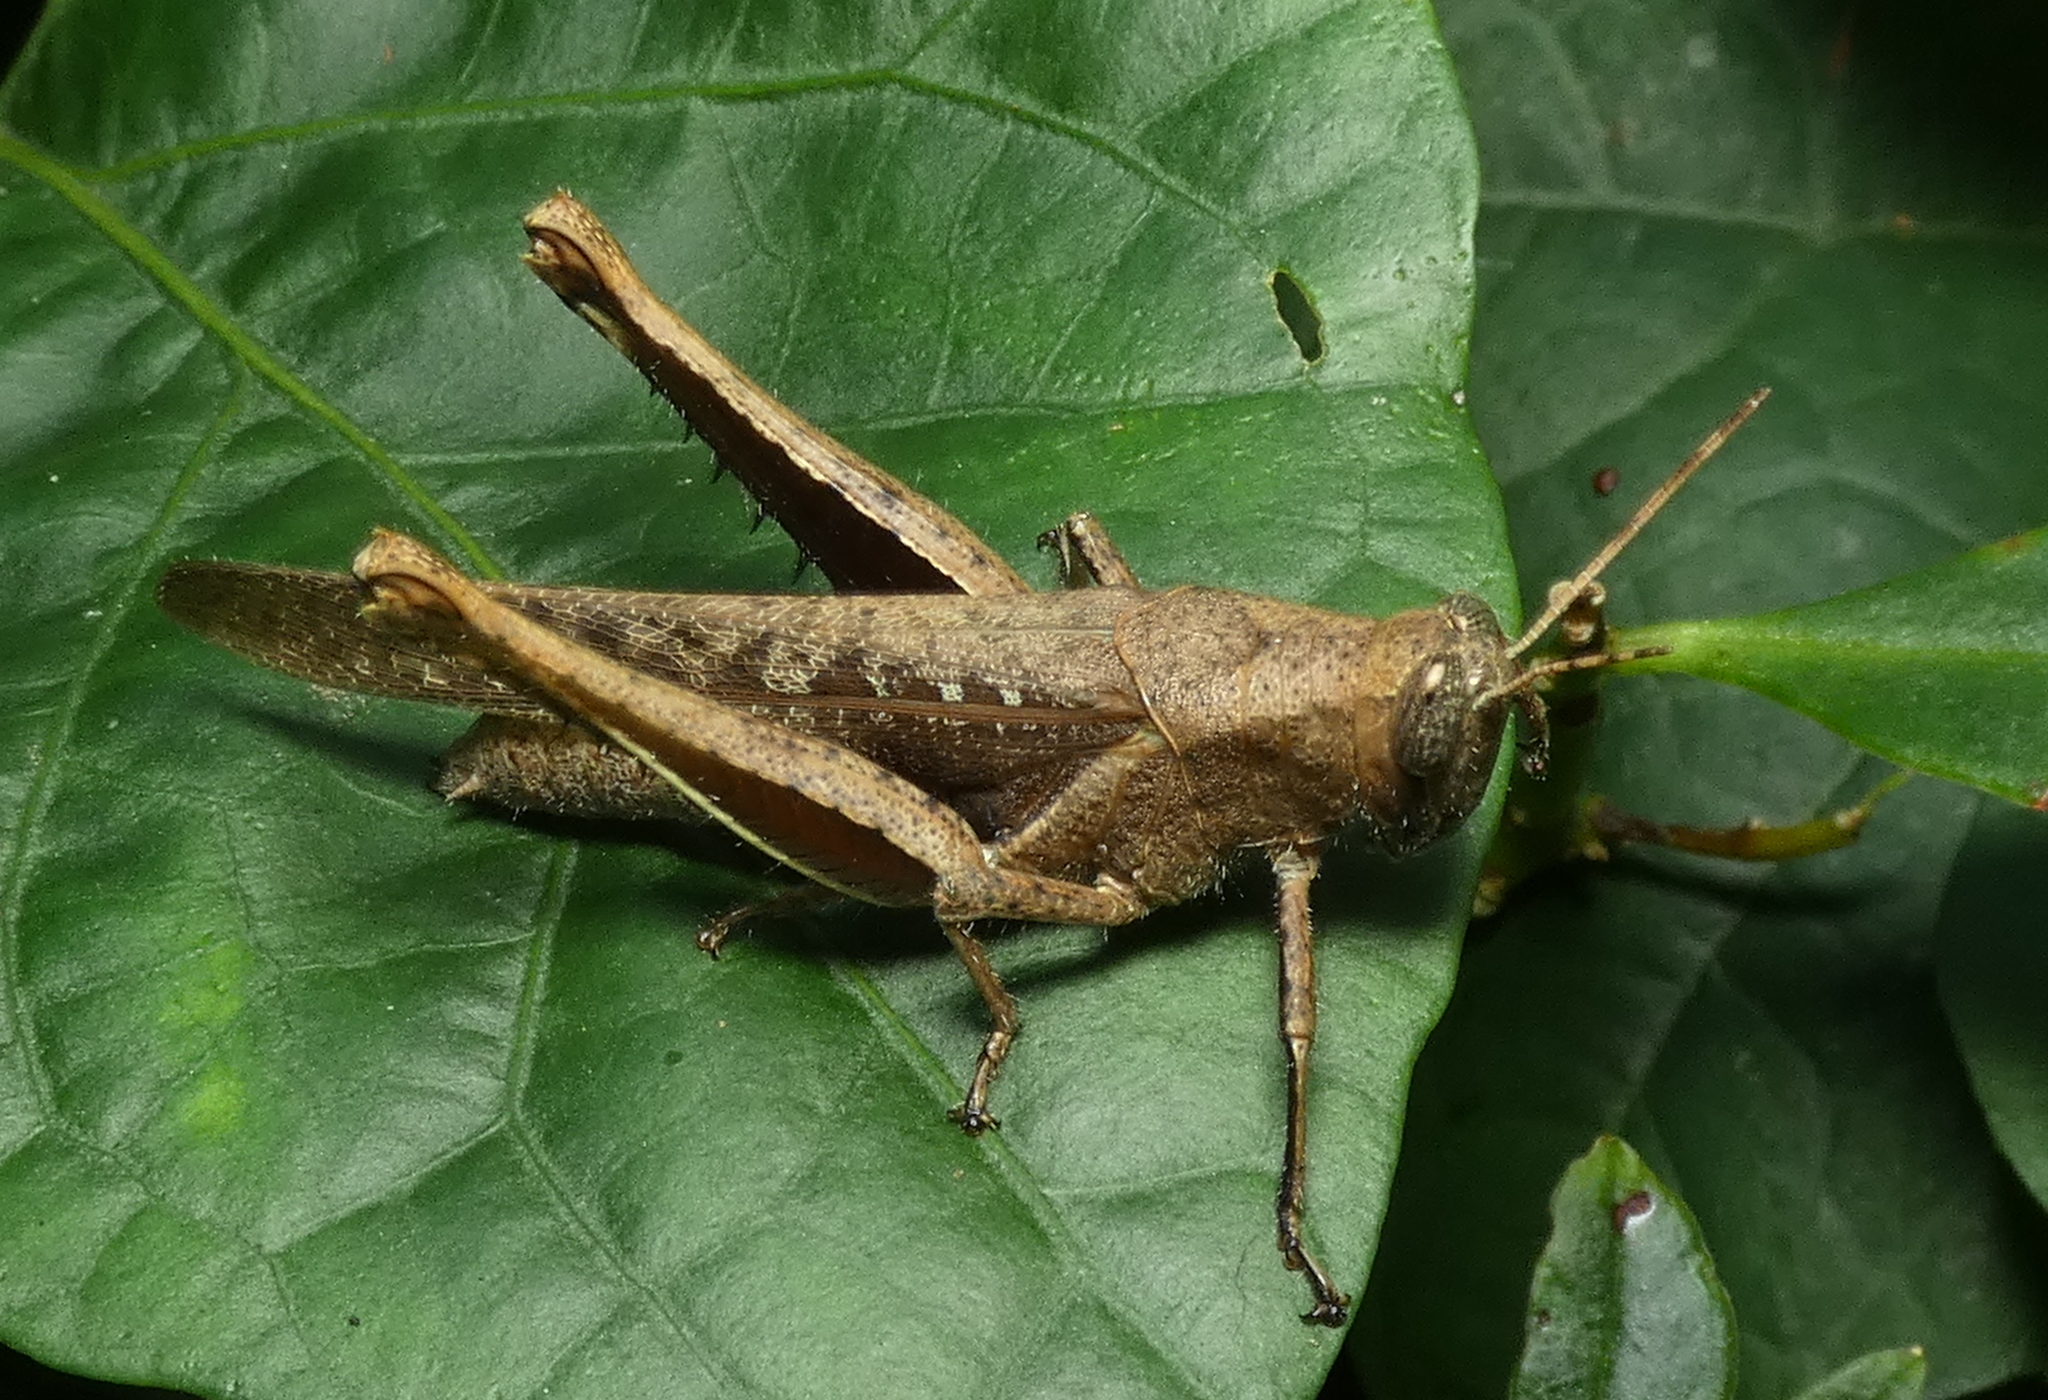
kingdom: Animalia
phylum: Arthropoda
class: Insecta
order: Orthoptera
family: Acrididae
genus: Abracris
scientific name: Abracris flavolineata
